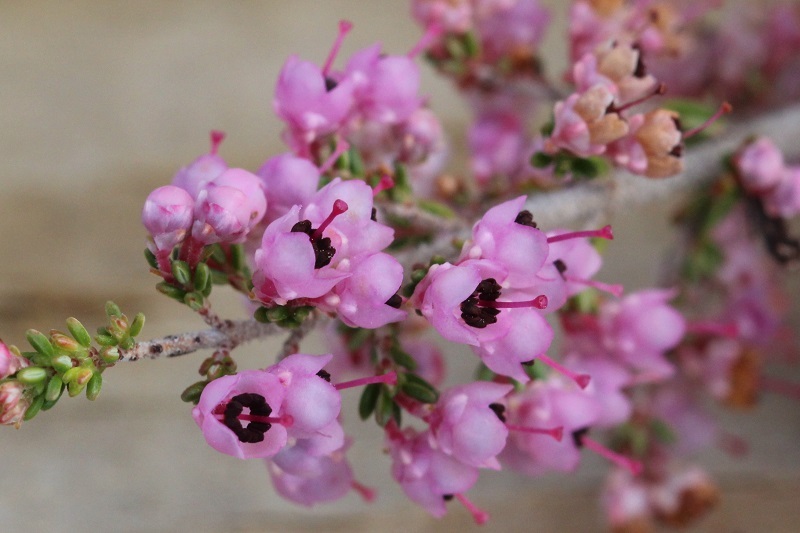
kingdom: Plantae
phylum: Tracheophyta
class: Magnoliopsida
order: Ericales
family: Ericaceae
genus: Erica
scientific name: Erica sparsa
